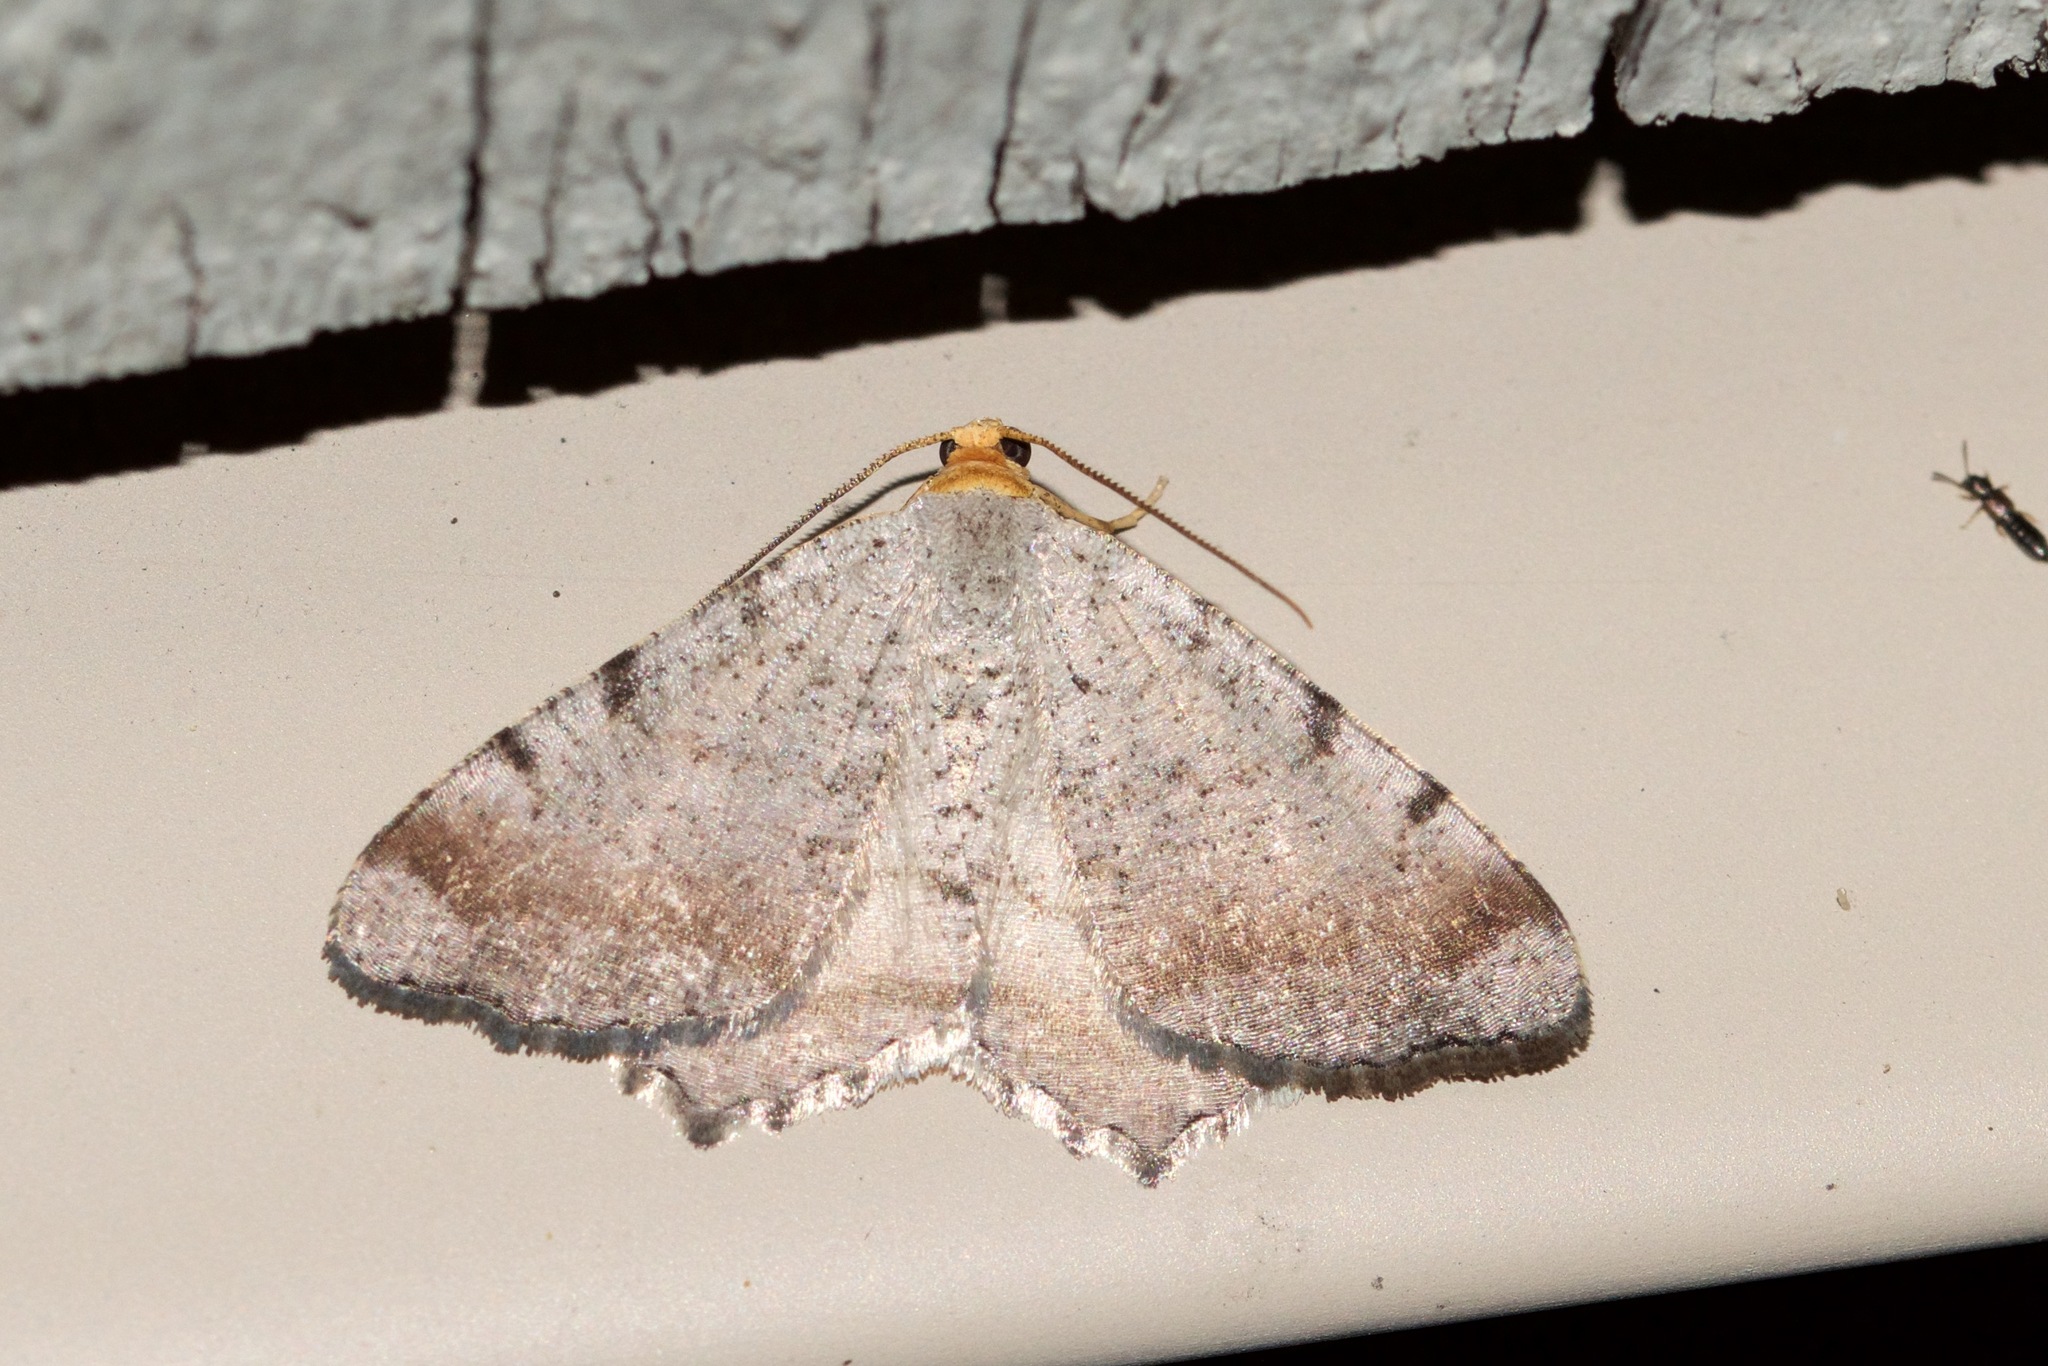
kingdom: Animalia
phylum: Arthropoda
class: Insecta
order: Lepidoptera
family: Geometridae
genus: Macaria
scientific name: Macaria minorata
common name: Minor angle moth
